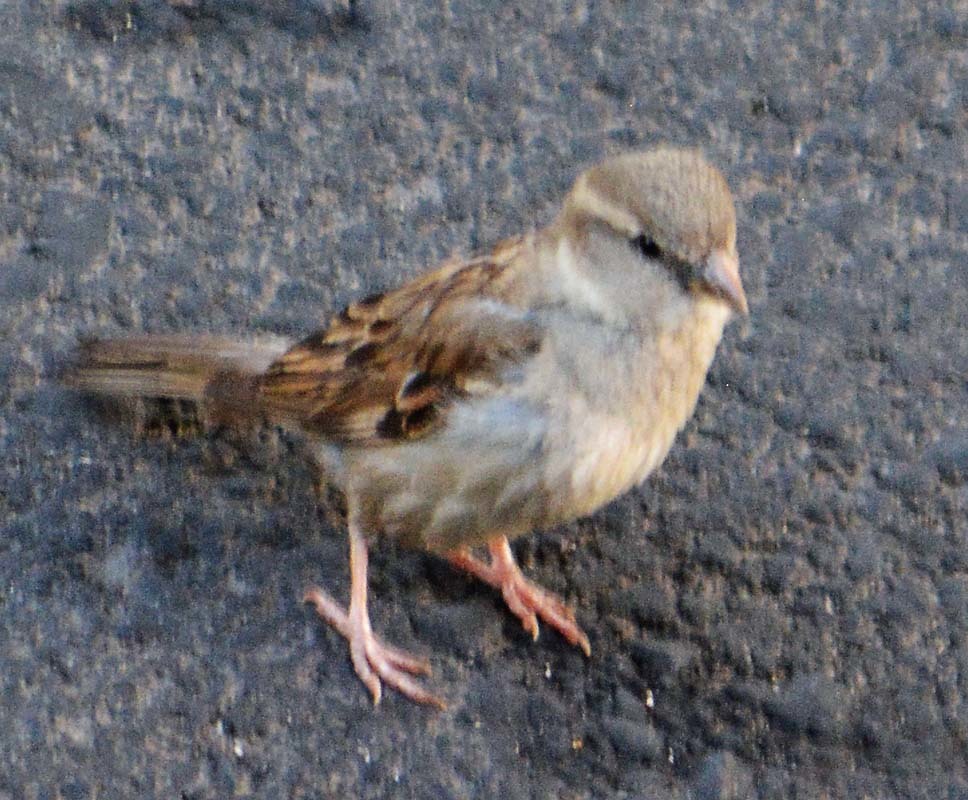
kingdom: Animalia
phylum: Chordata
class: Aves
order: Passeriformes
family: Passeridae
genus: Passer
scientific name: Passer domesticus
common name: House sparrow
